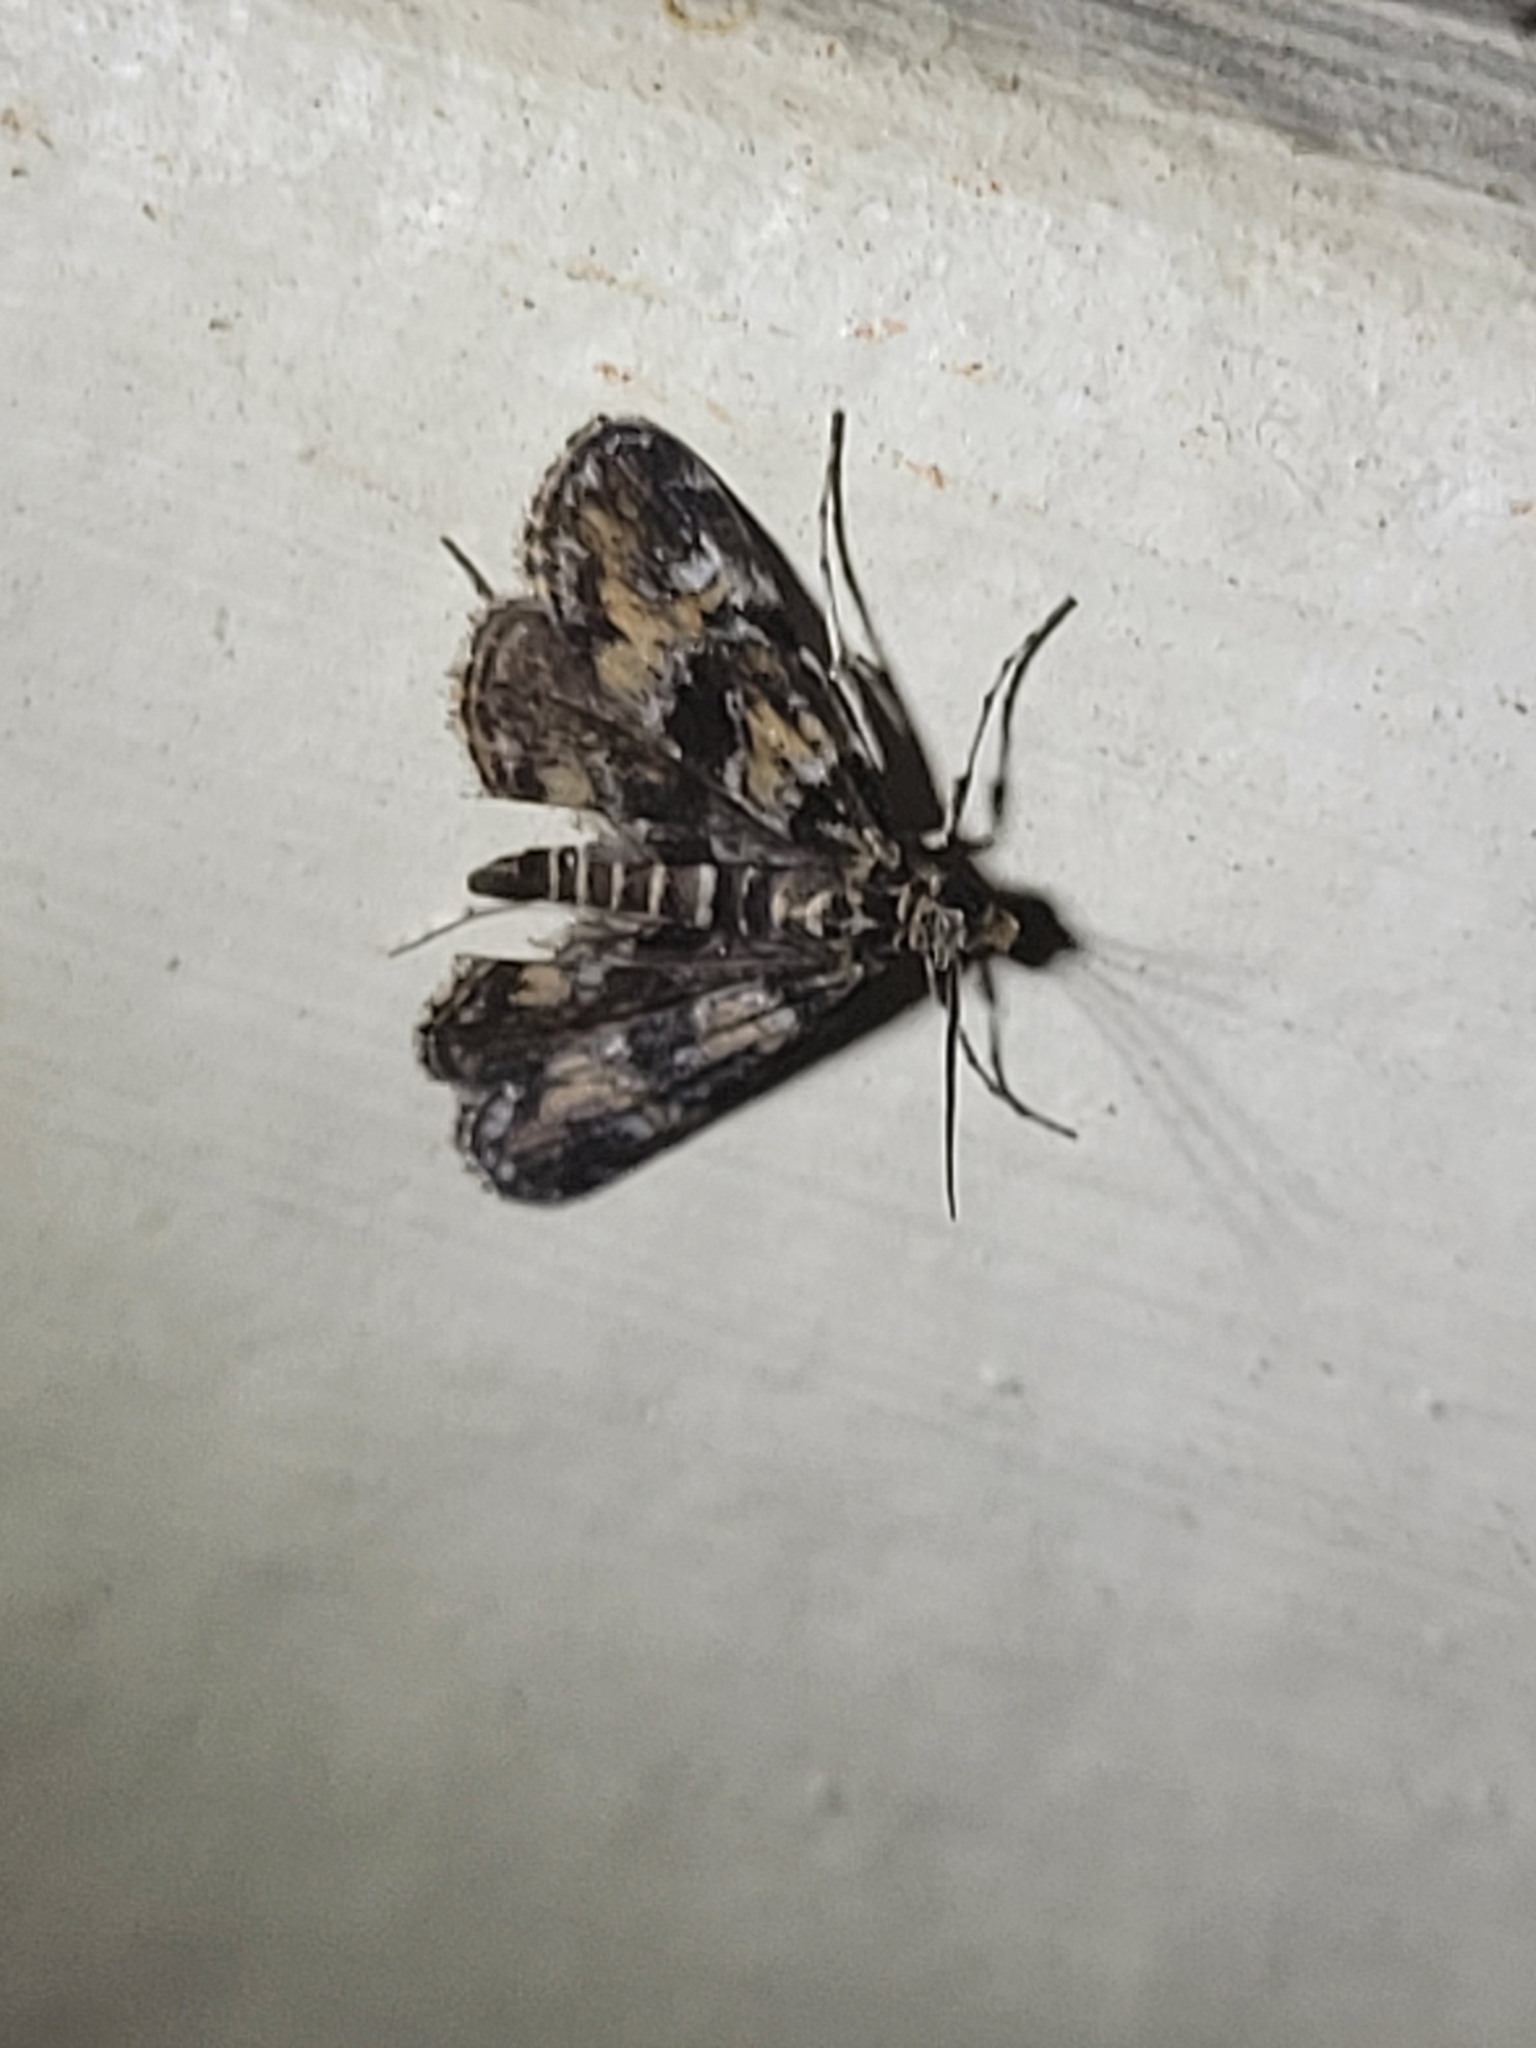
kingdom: Animalia
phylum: Arthropoda
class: Insecta
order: Lepidoptera
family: Crambidae
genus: Elophila
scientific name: Elophila obliteralis
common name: Waterlily leafcutter moth
